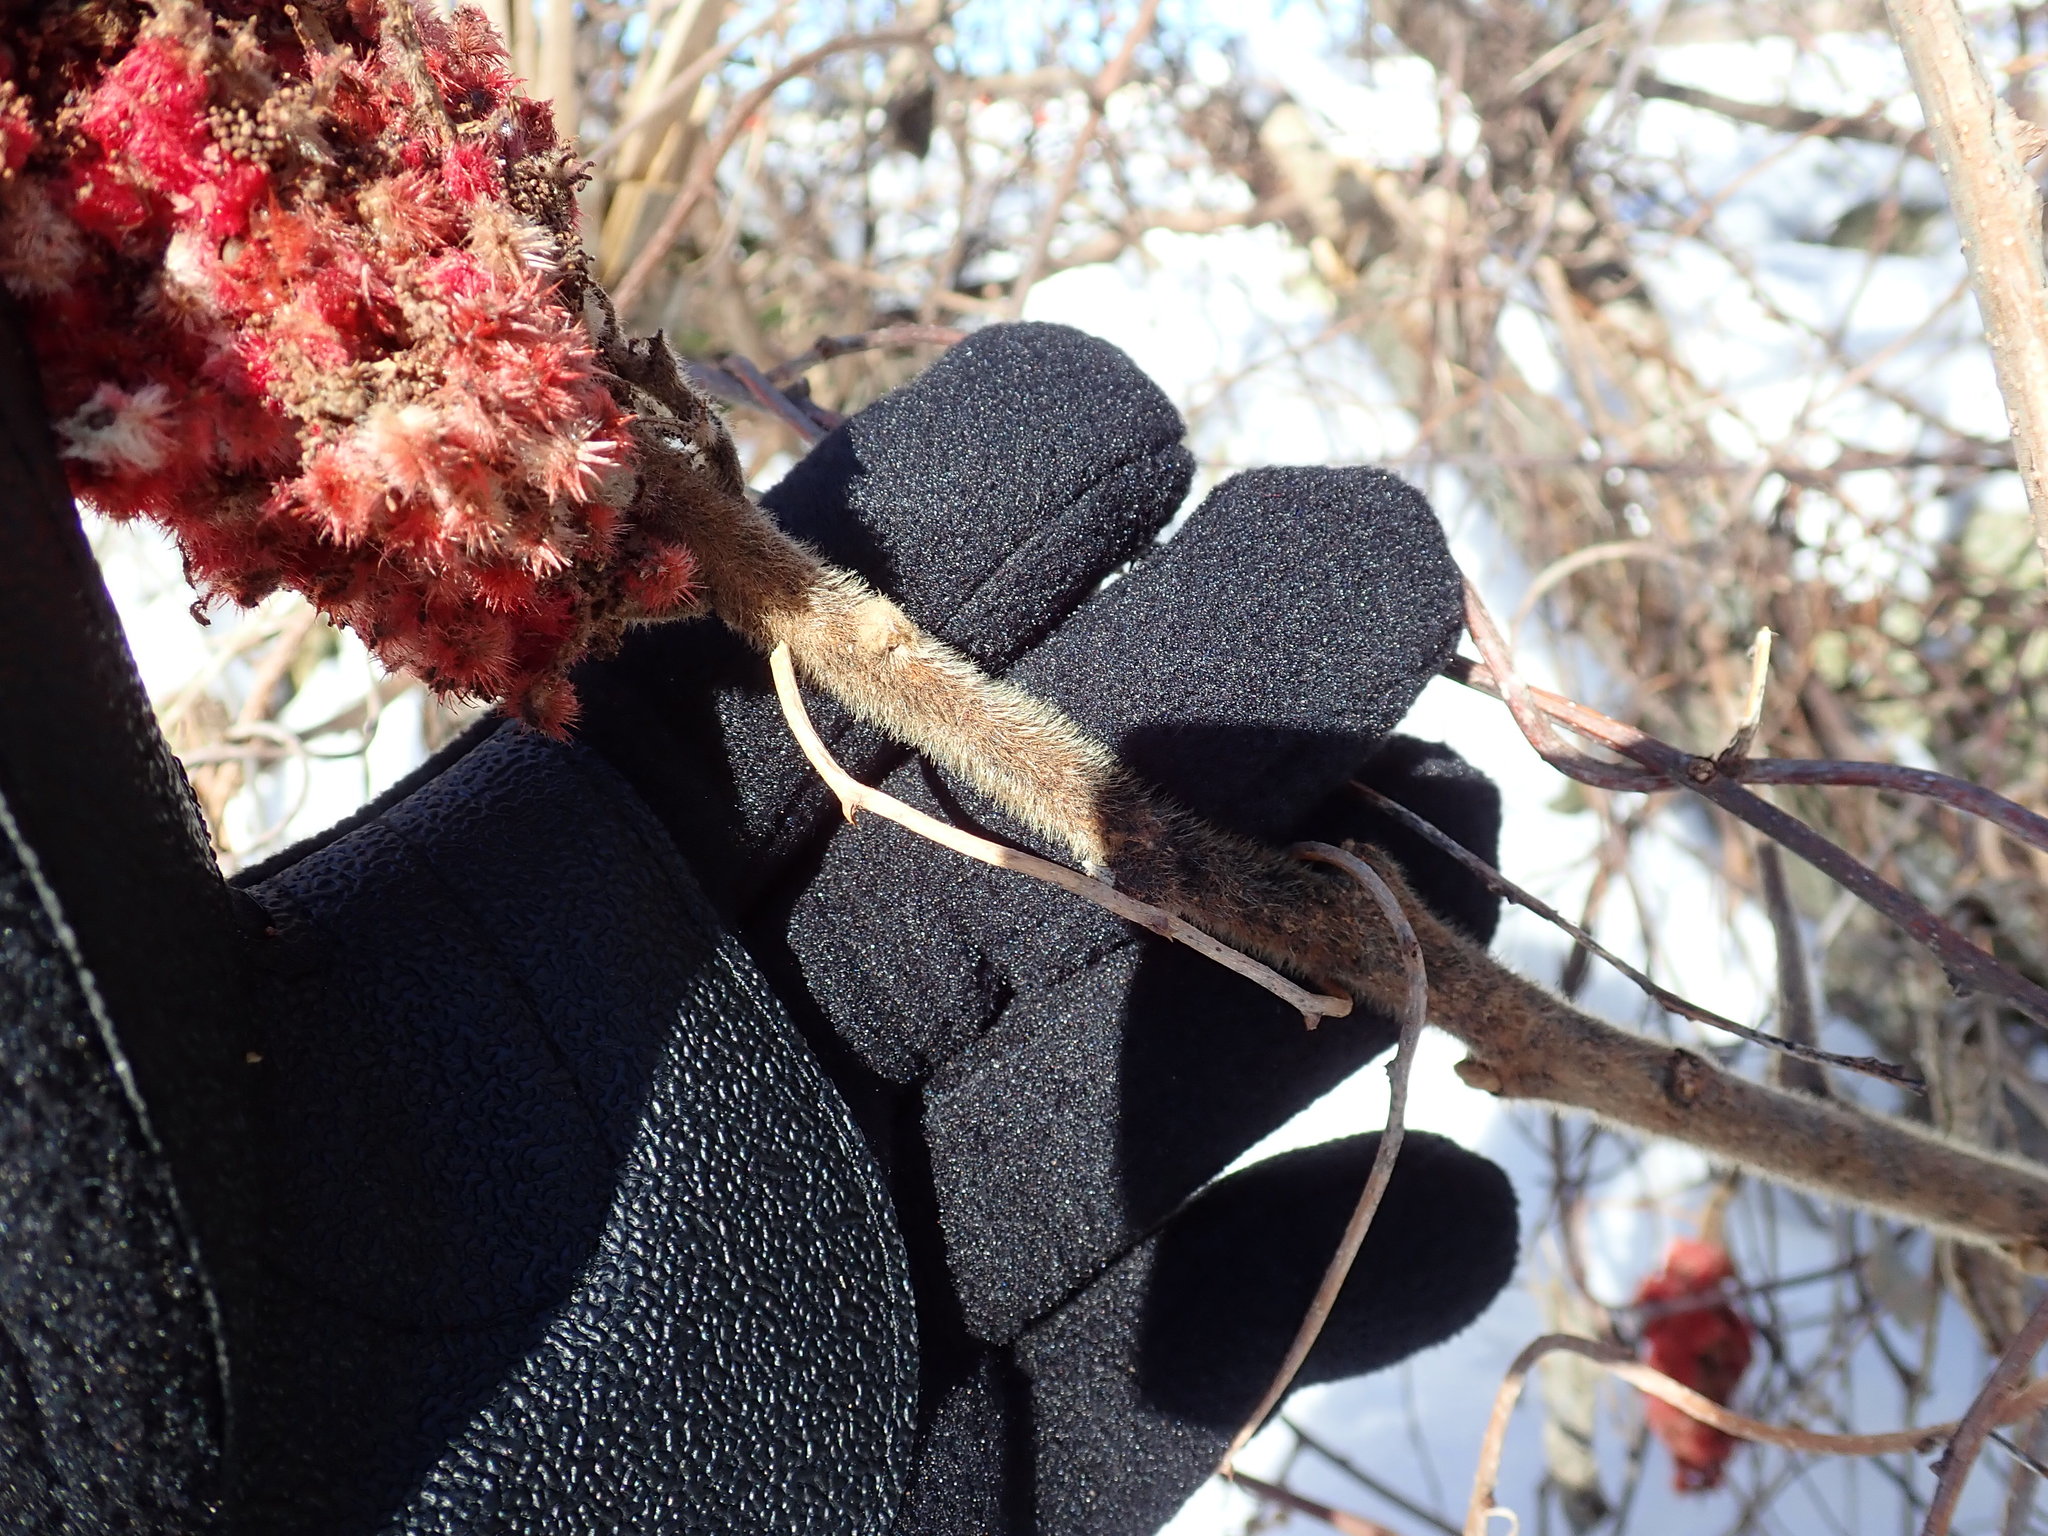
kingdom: Plantae
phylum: Tracheophyta
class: Magnoliopsida
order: Sapindales
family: Anacardiaceae
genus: Rhus
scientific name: Rhus typhina
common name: Staghorn sumac
